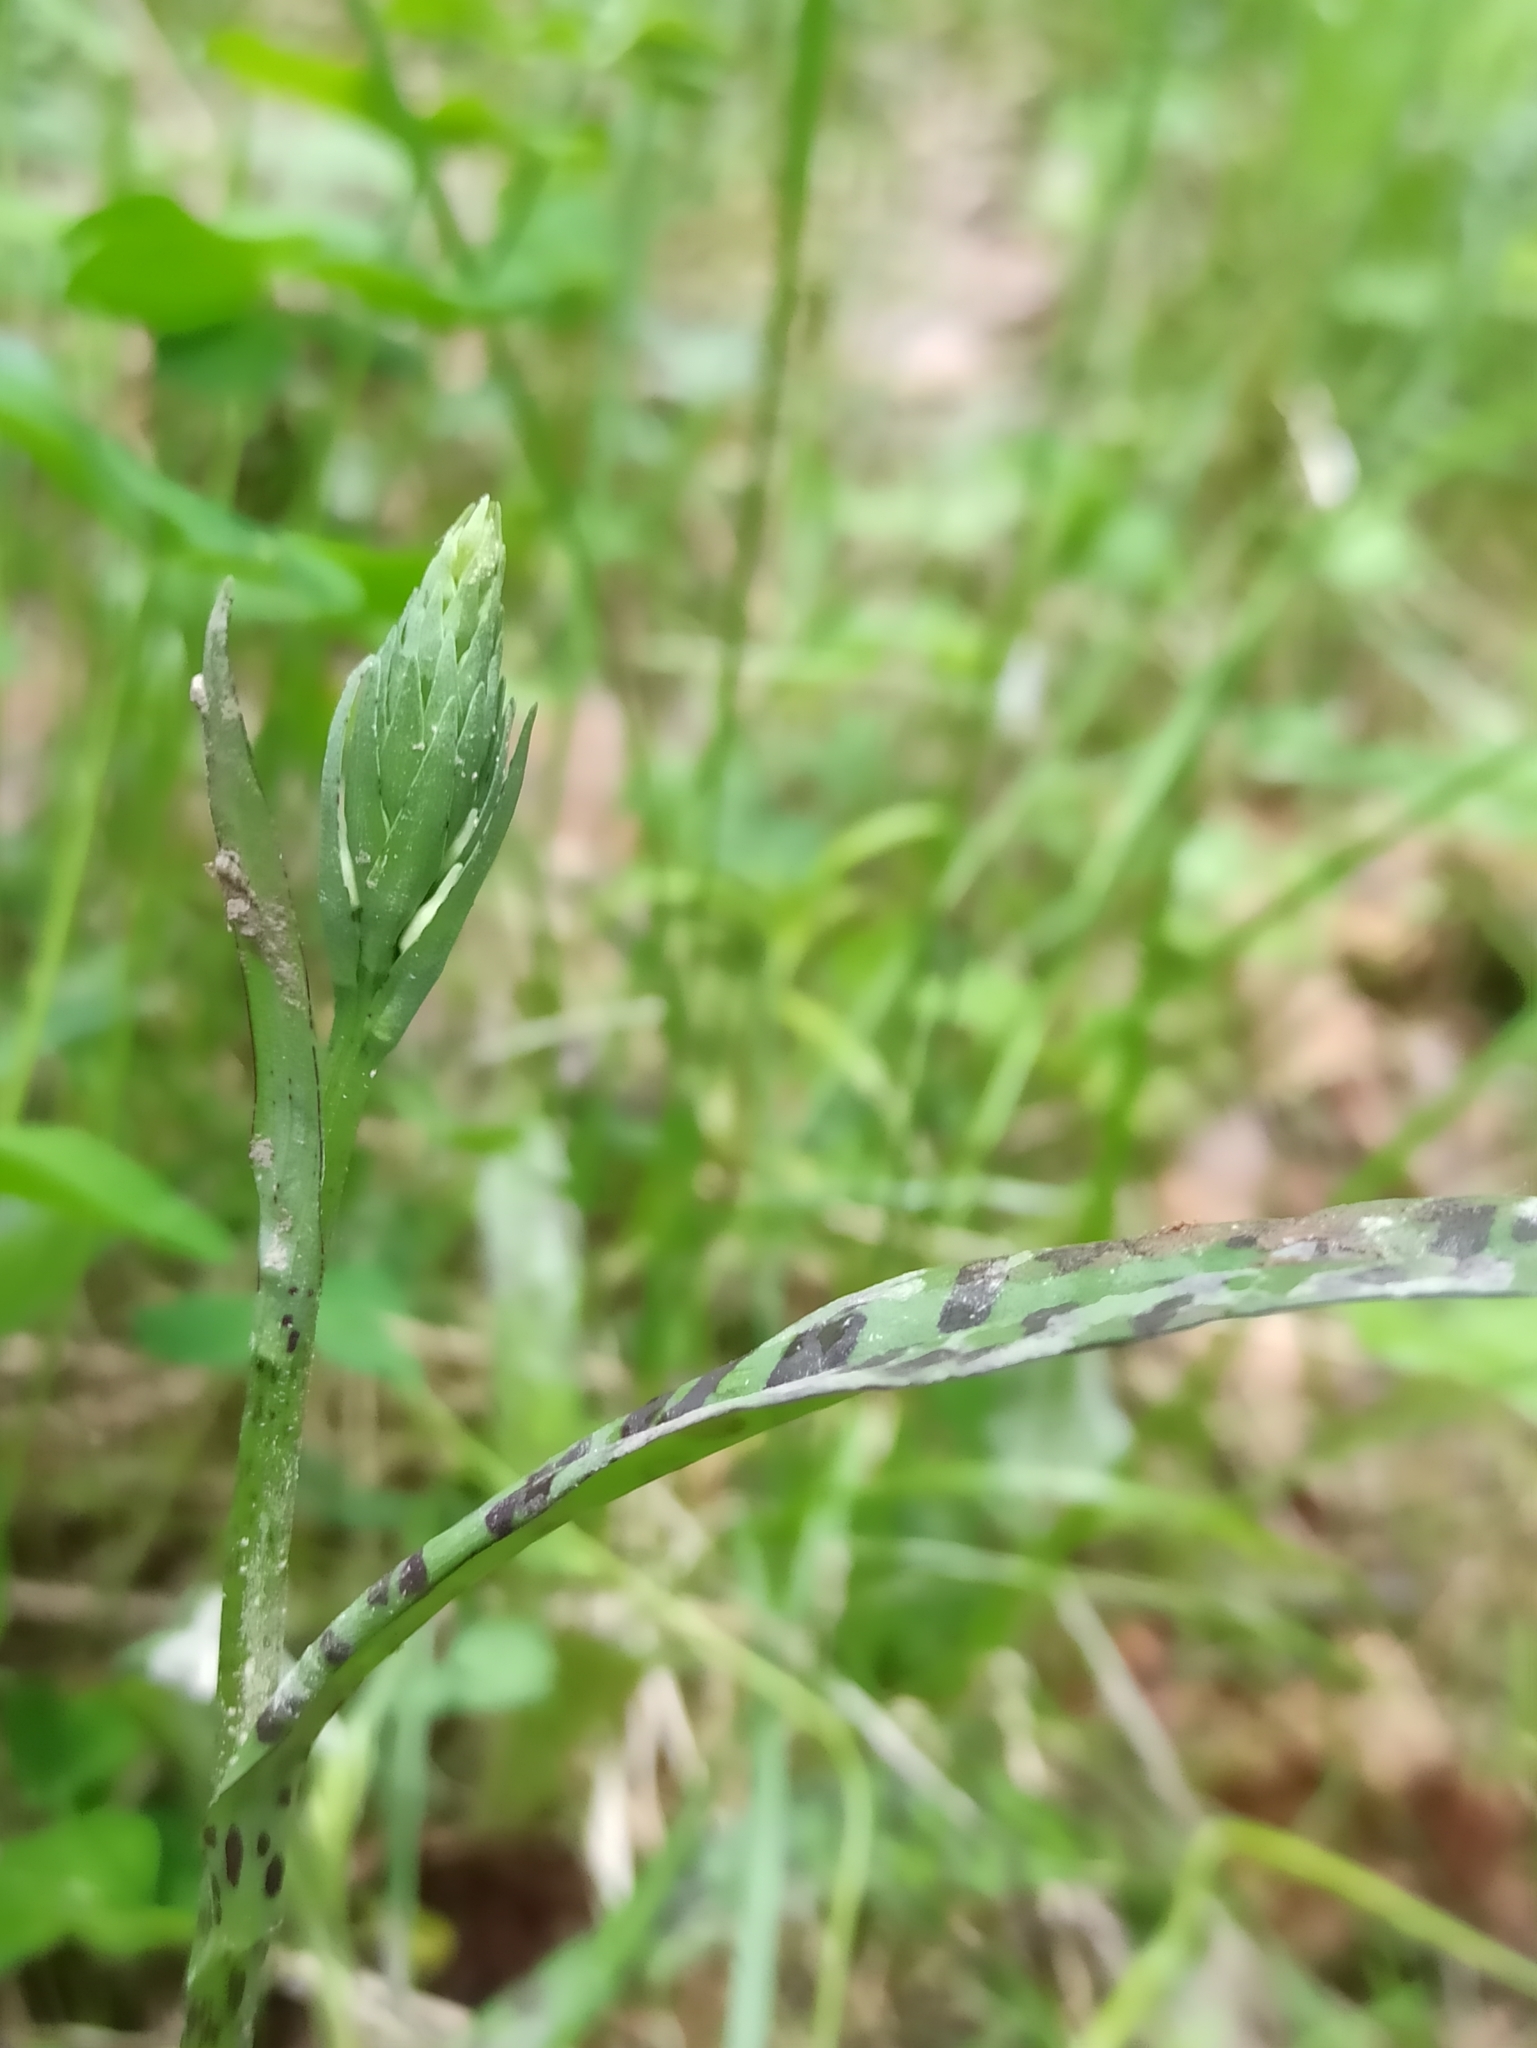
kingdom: Plantae
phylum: Tracheophyta
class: Liliopsida
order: Asparagales
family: Orchidaceae
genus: Dactylorhiza
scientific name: Dactylorhiza maculata
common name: Heath spotted-orchid
